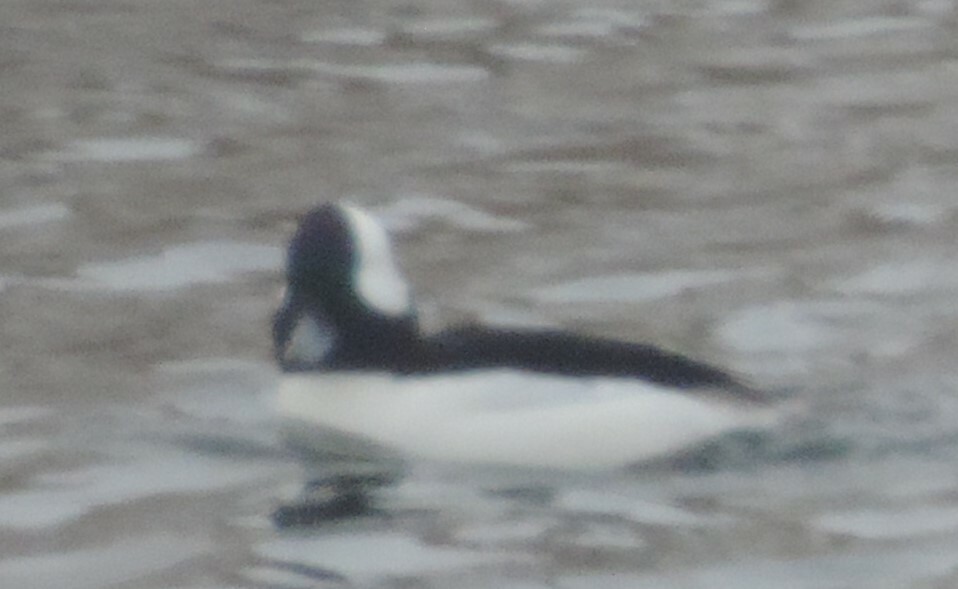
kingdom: Animalia
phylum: Chordata
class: Aves
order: Anseriformes
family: Anatidae
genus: Bucephala
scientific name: Bucephala albeola
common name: Bufflehead
